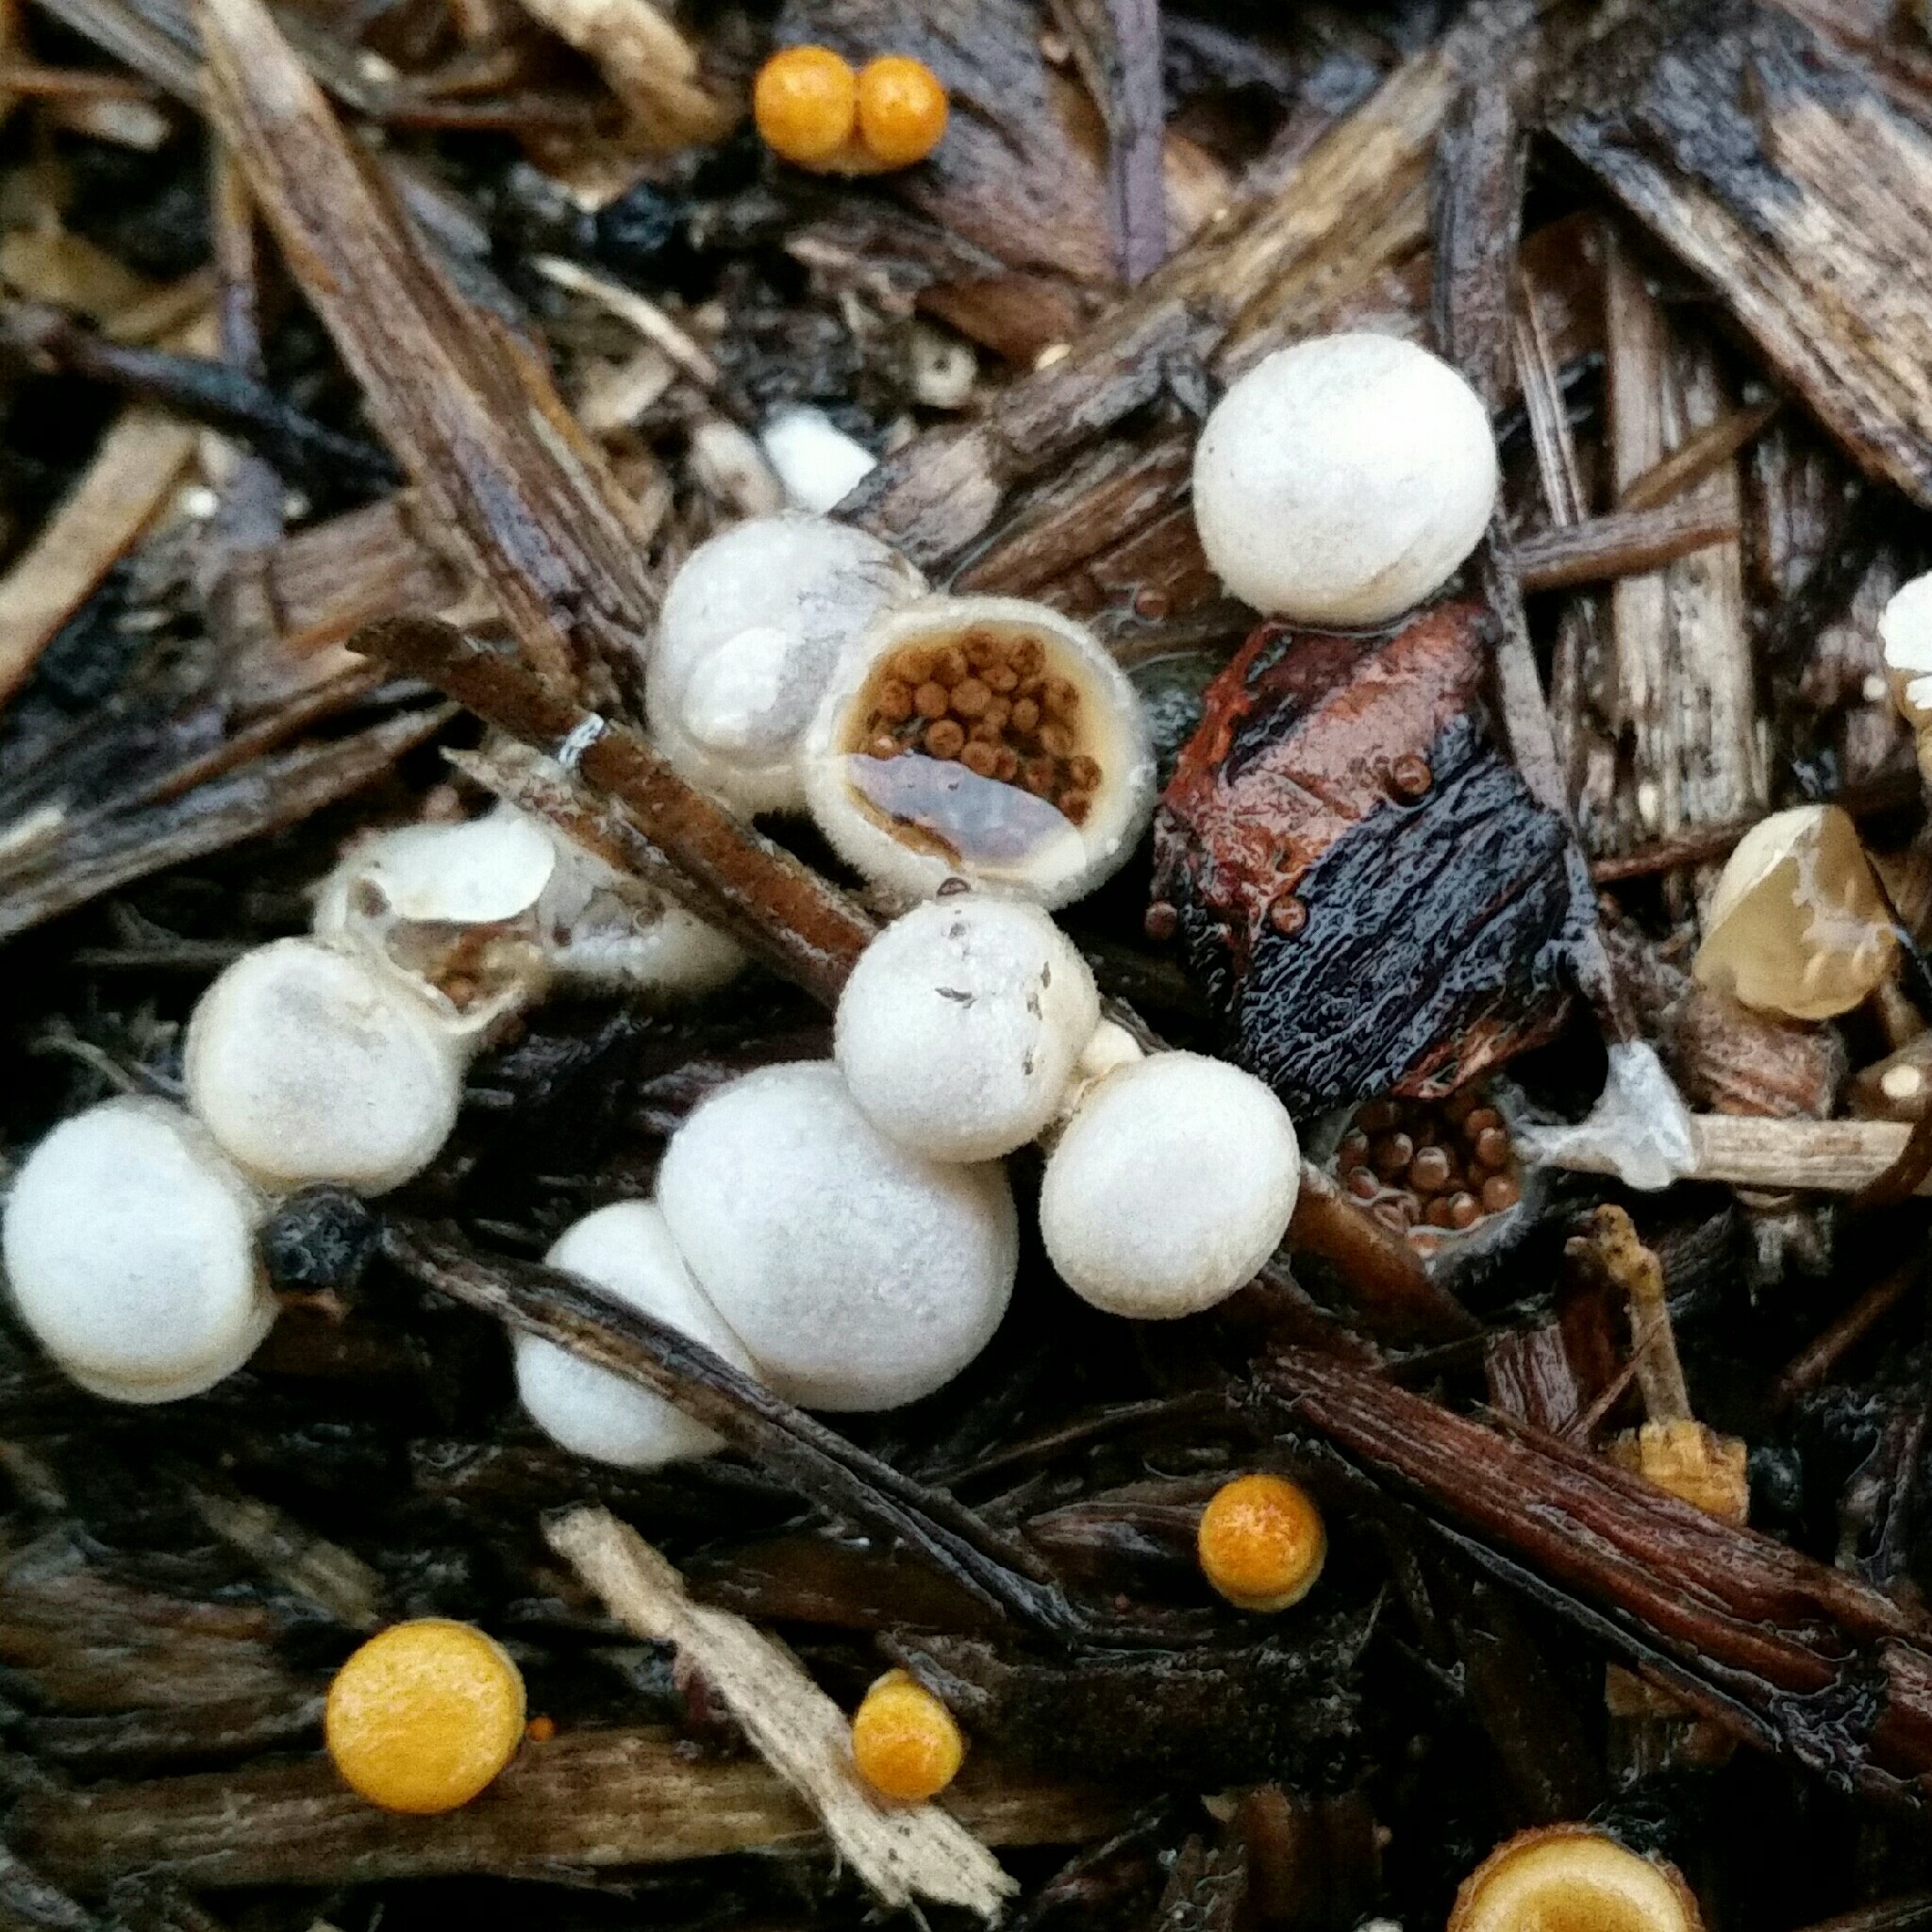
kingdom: Fungi
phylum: Basidiomycota
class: Agaricomycetes
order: Agaricales
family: Agaricaceae
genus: Nidula
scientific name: Nidula niveotomentosa
